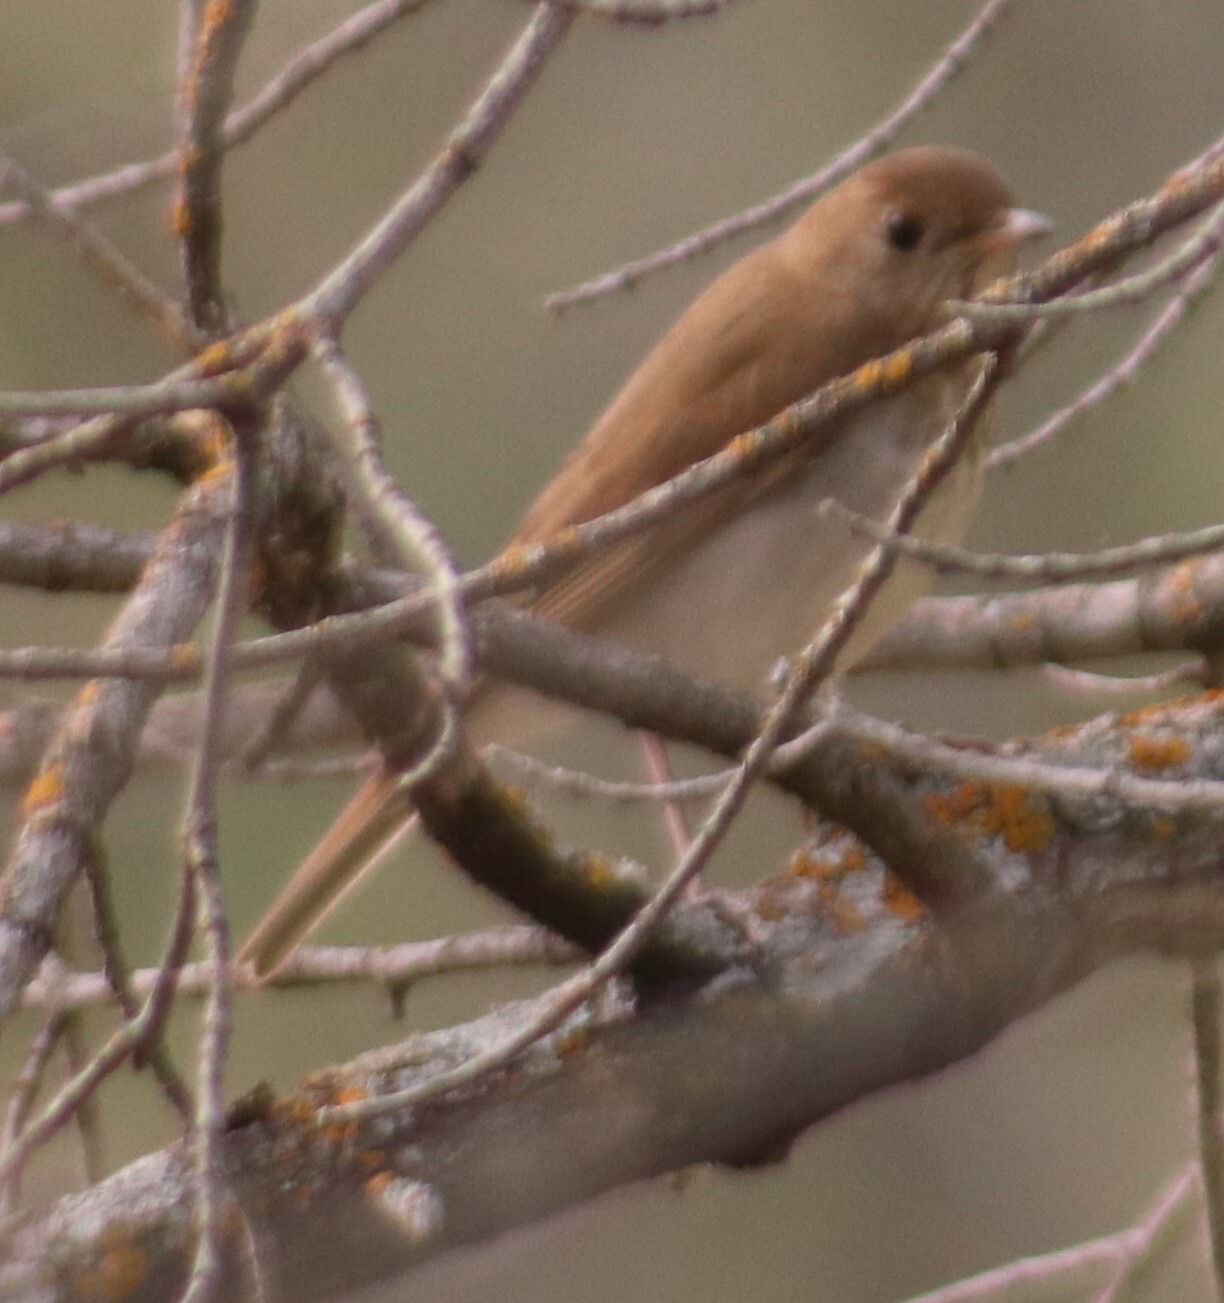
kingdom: Animalia
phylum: Chordata
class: Aves
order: Passeriformes
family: Turdidae
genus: Catharus
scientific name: Catharus fuscescens
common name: Veery
